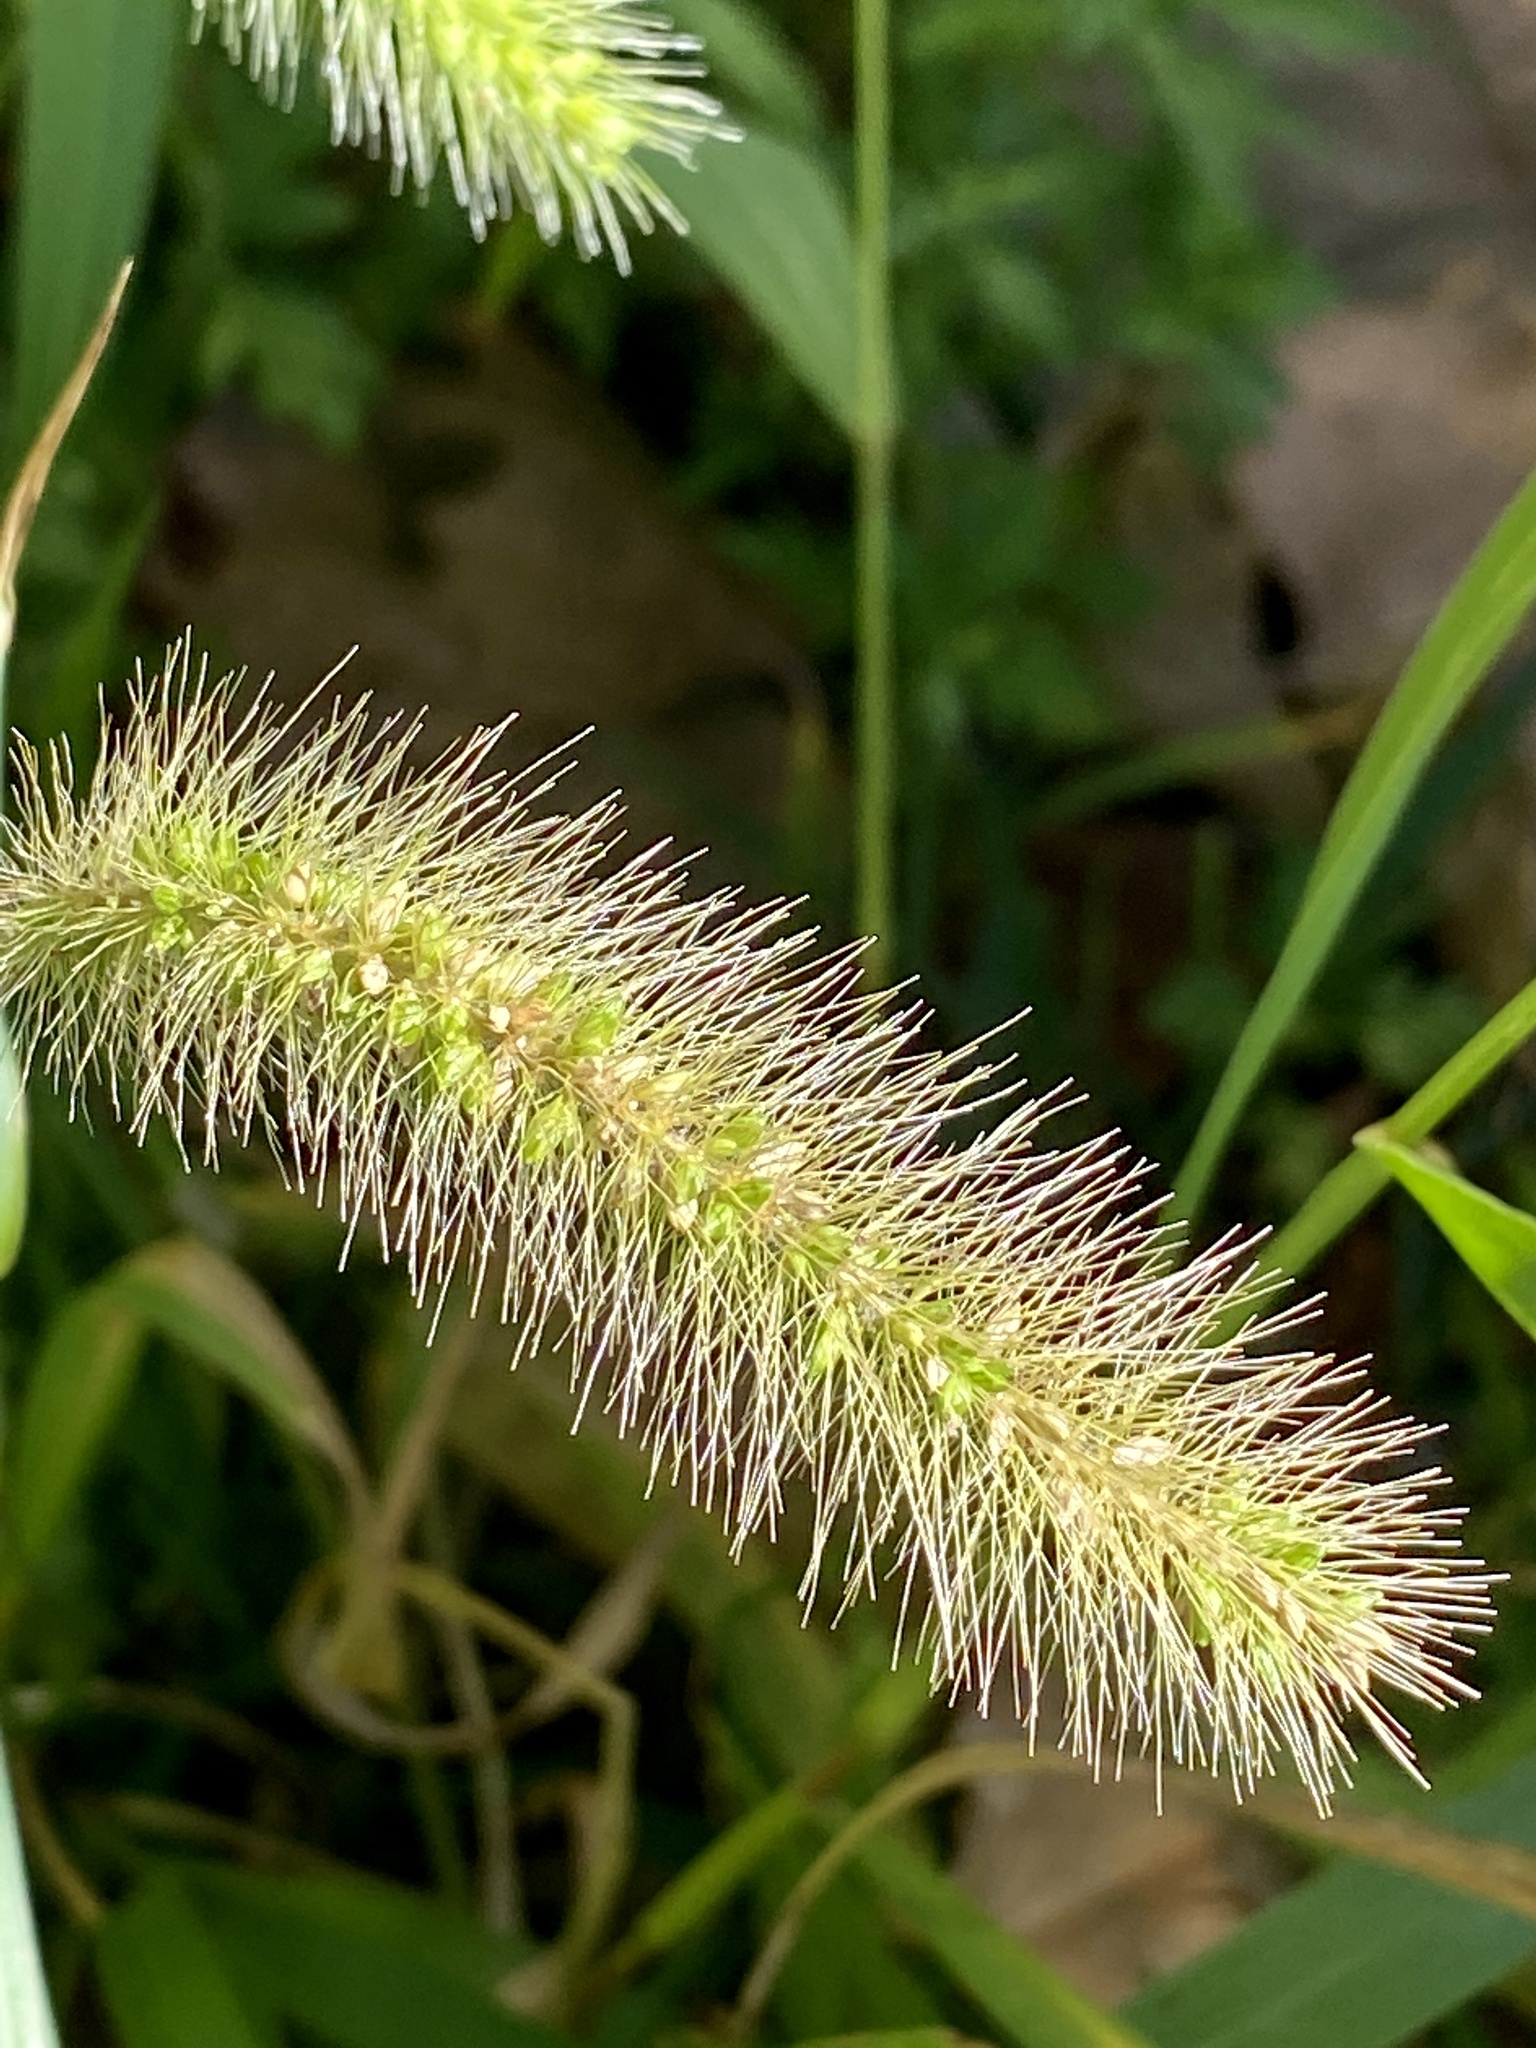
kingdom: Plantae
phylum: Tracheophyta
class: Liliopsida
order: Poales
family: Poaceae
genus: Setaria
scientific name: Setaria faberi
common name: Nodding bristle-grass
